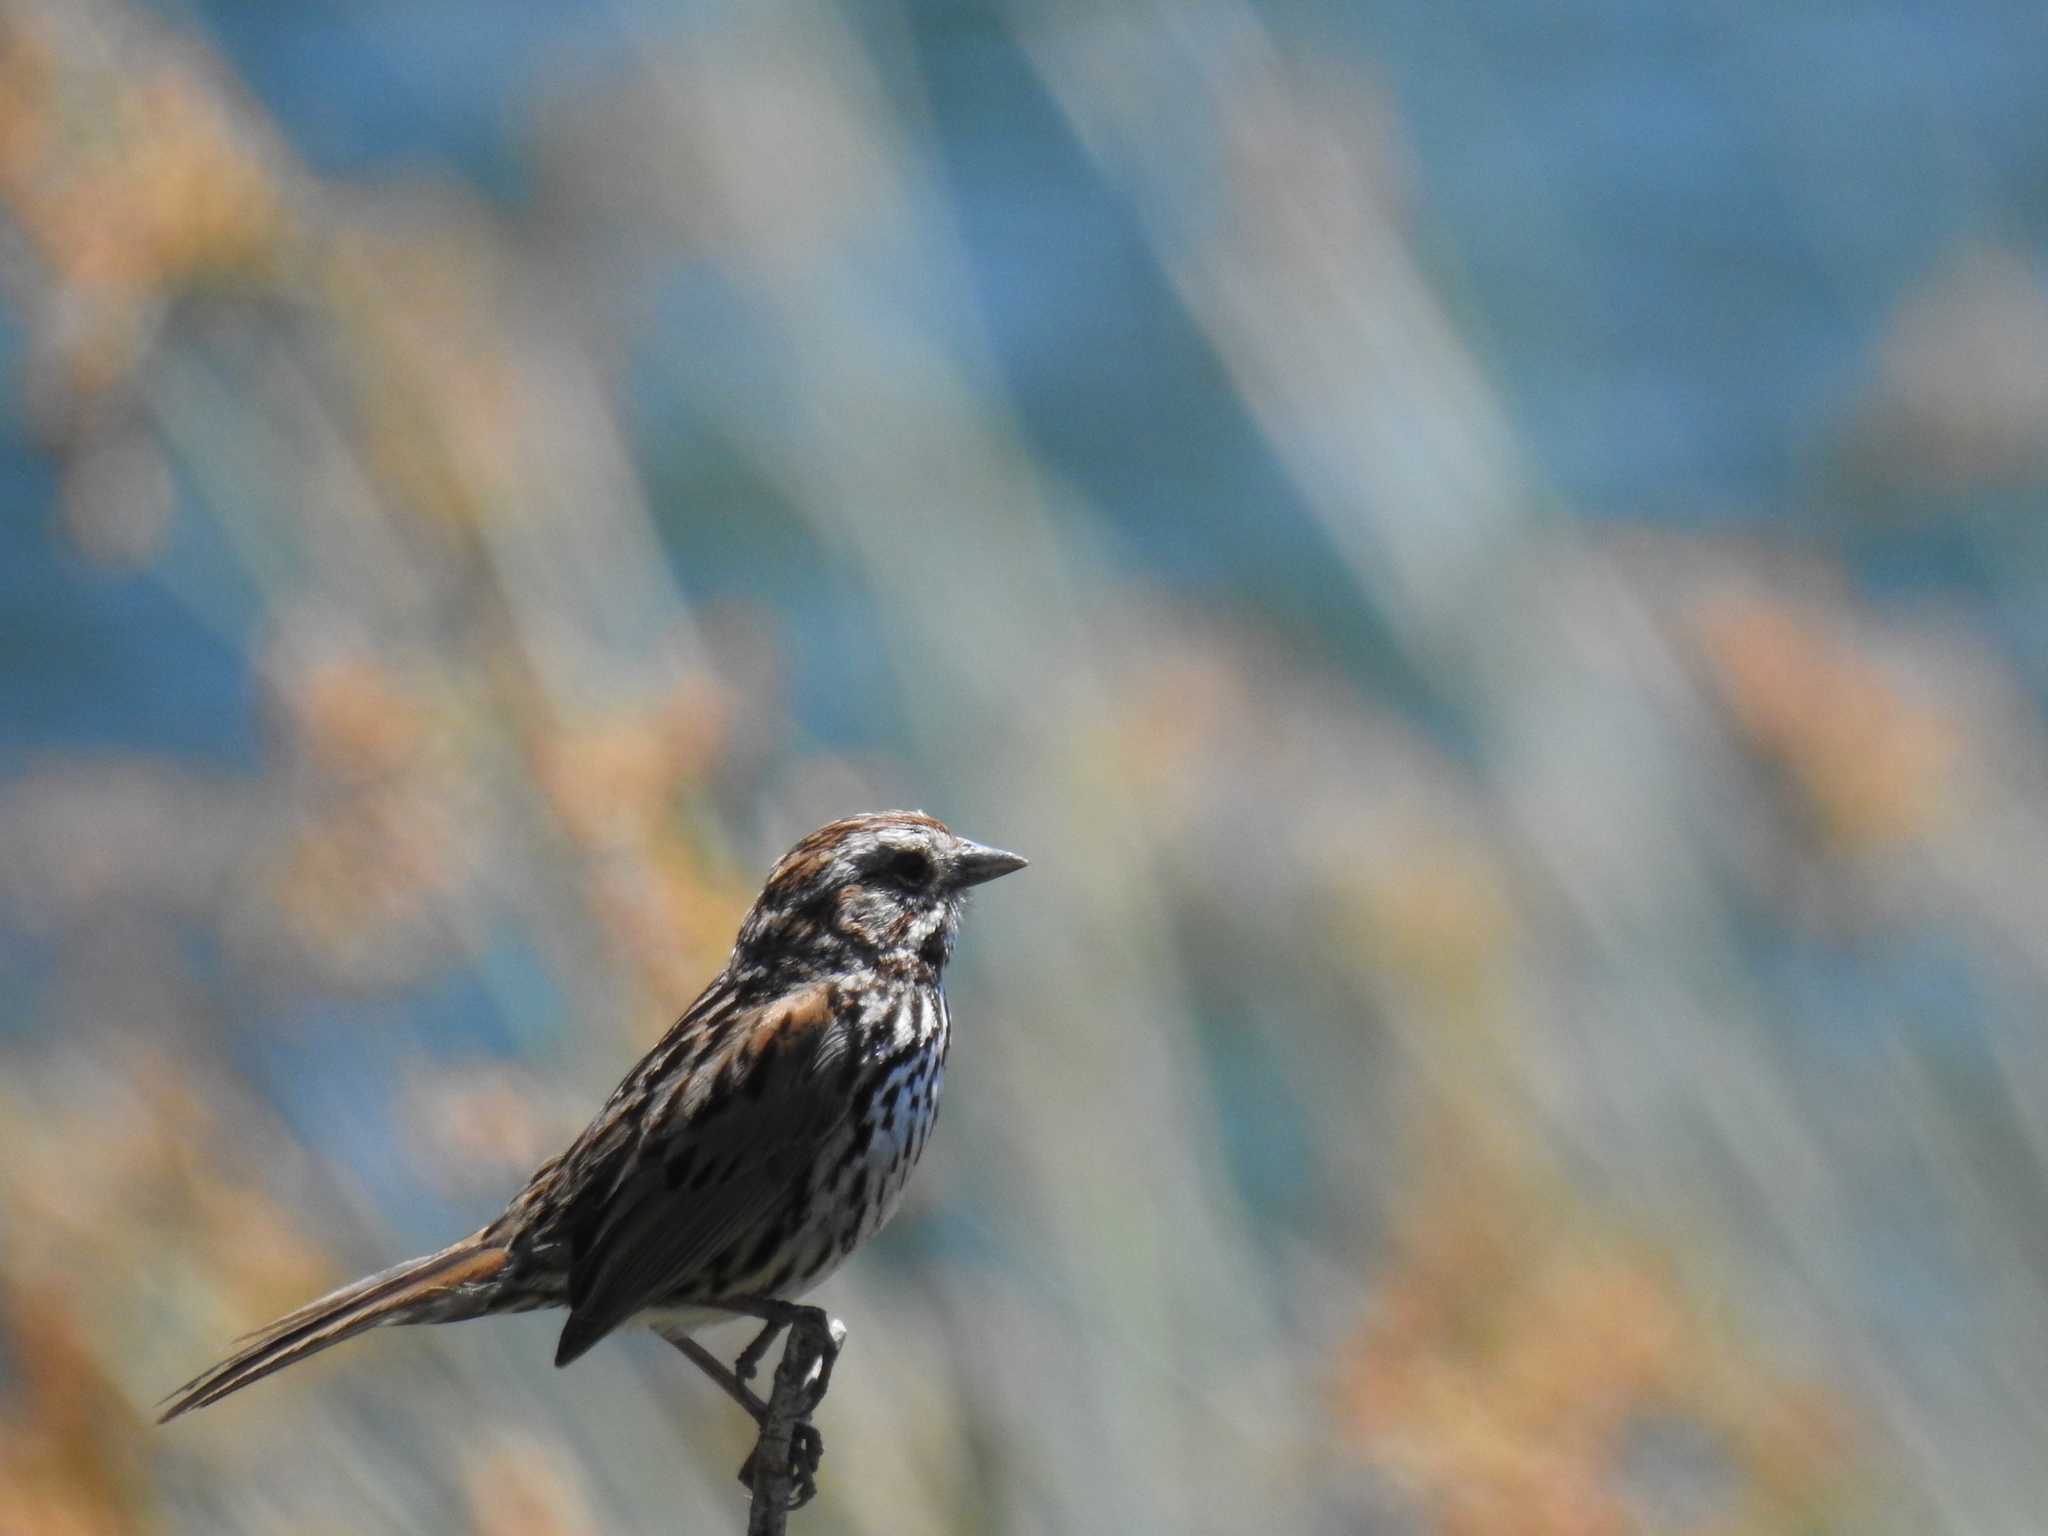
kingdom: Animalia
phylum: Chordata
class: Aves
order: Passeriformes
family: Passerellidae
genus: Melospiza
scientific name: Melospiza melodia
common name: Song sparrow
